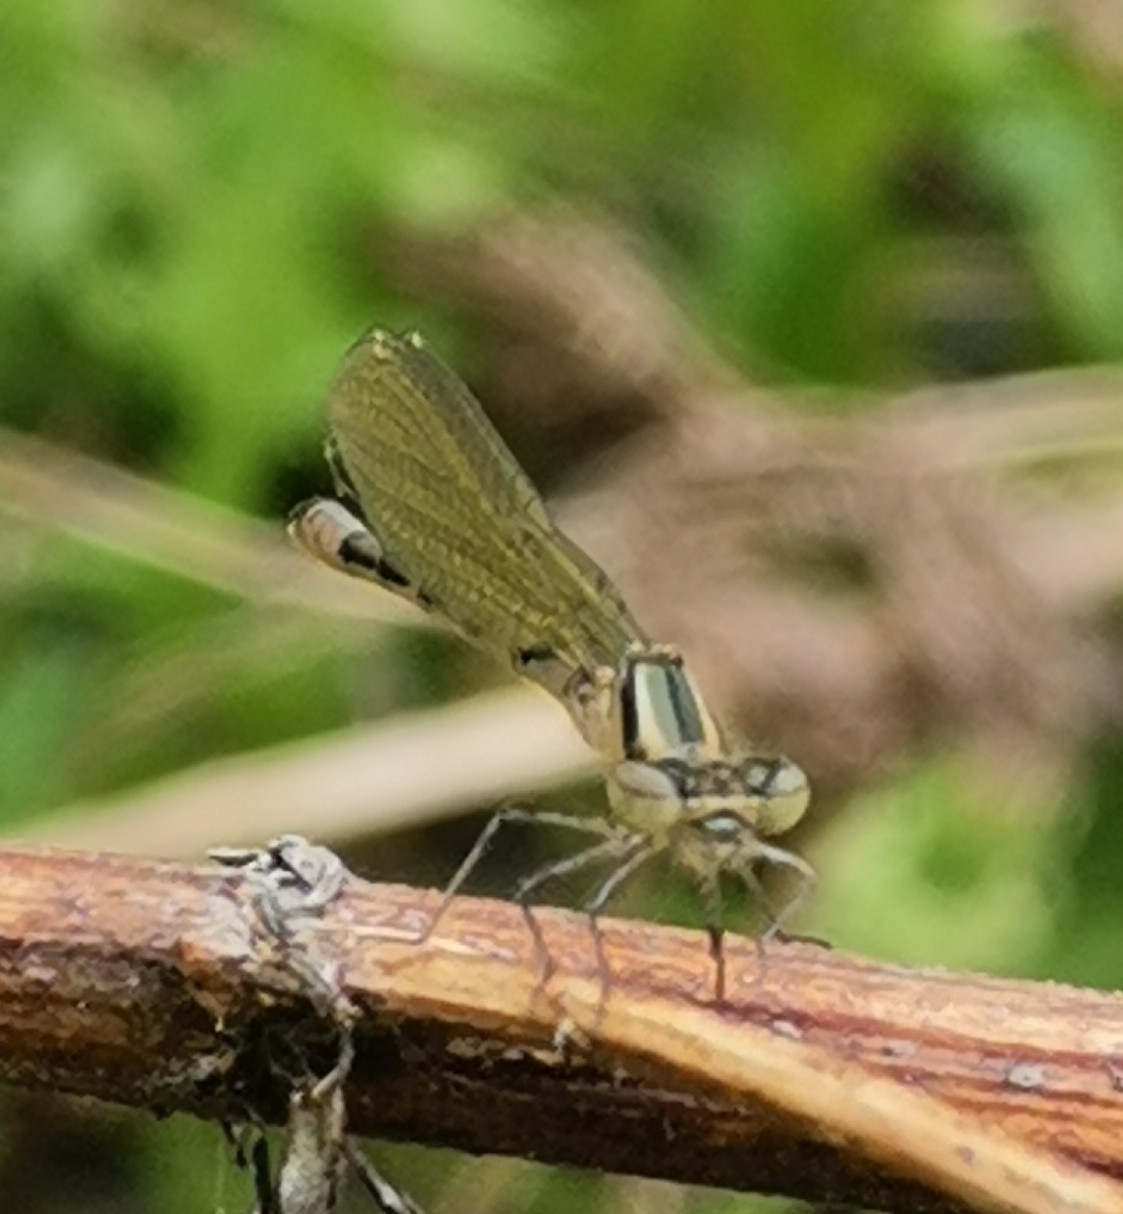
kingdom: Animalia
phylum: Arthropoda
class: Insecta
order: Odonata
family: Coenagrionidae
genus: Coenagrion
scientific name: Coenagrion hastulatum
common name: Spearhead bluet
